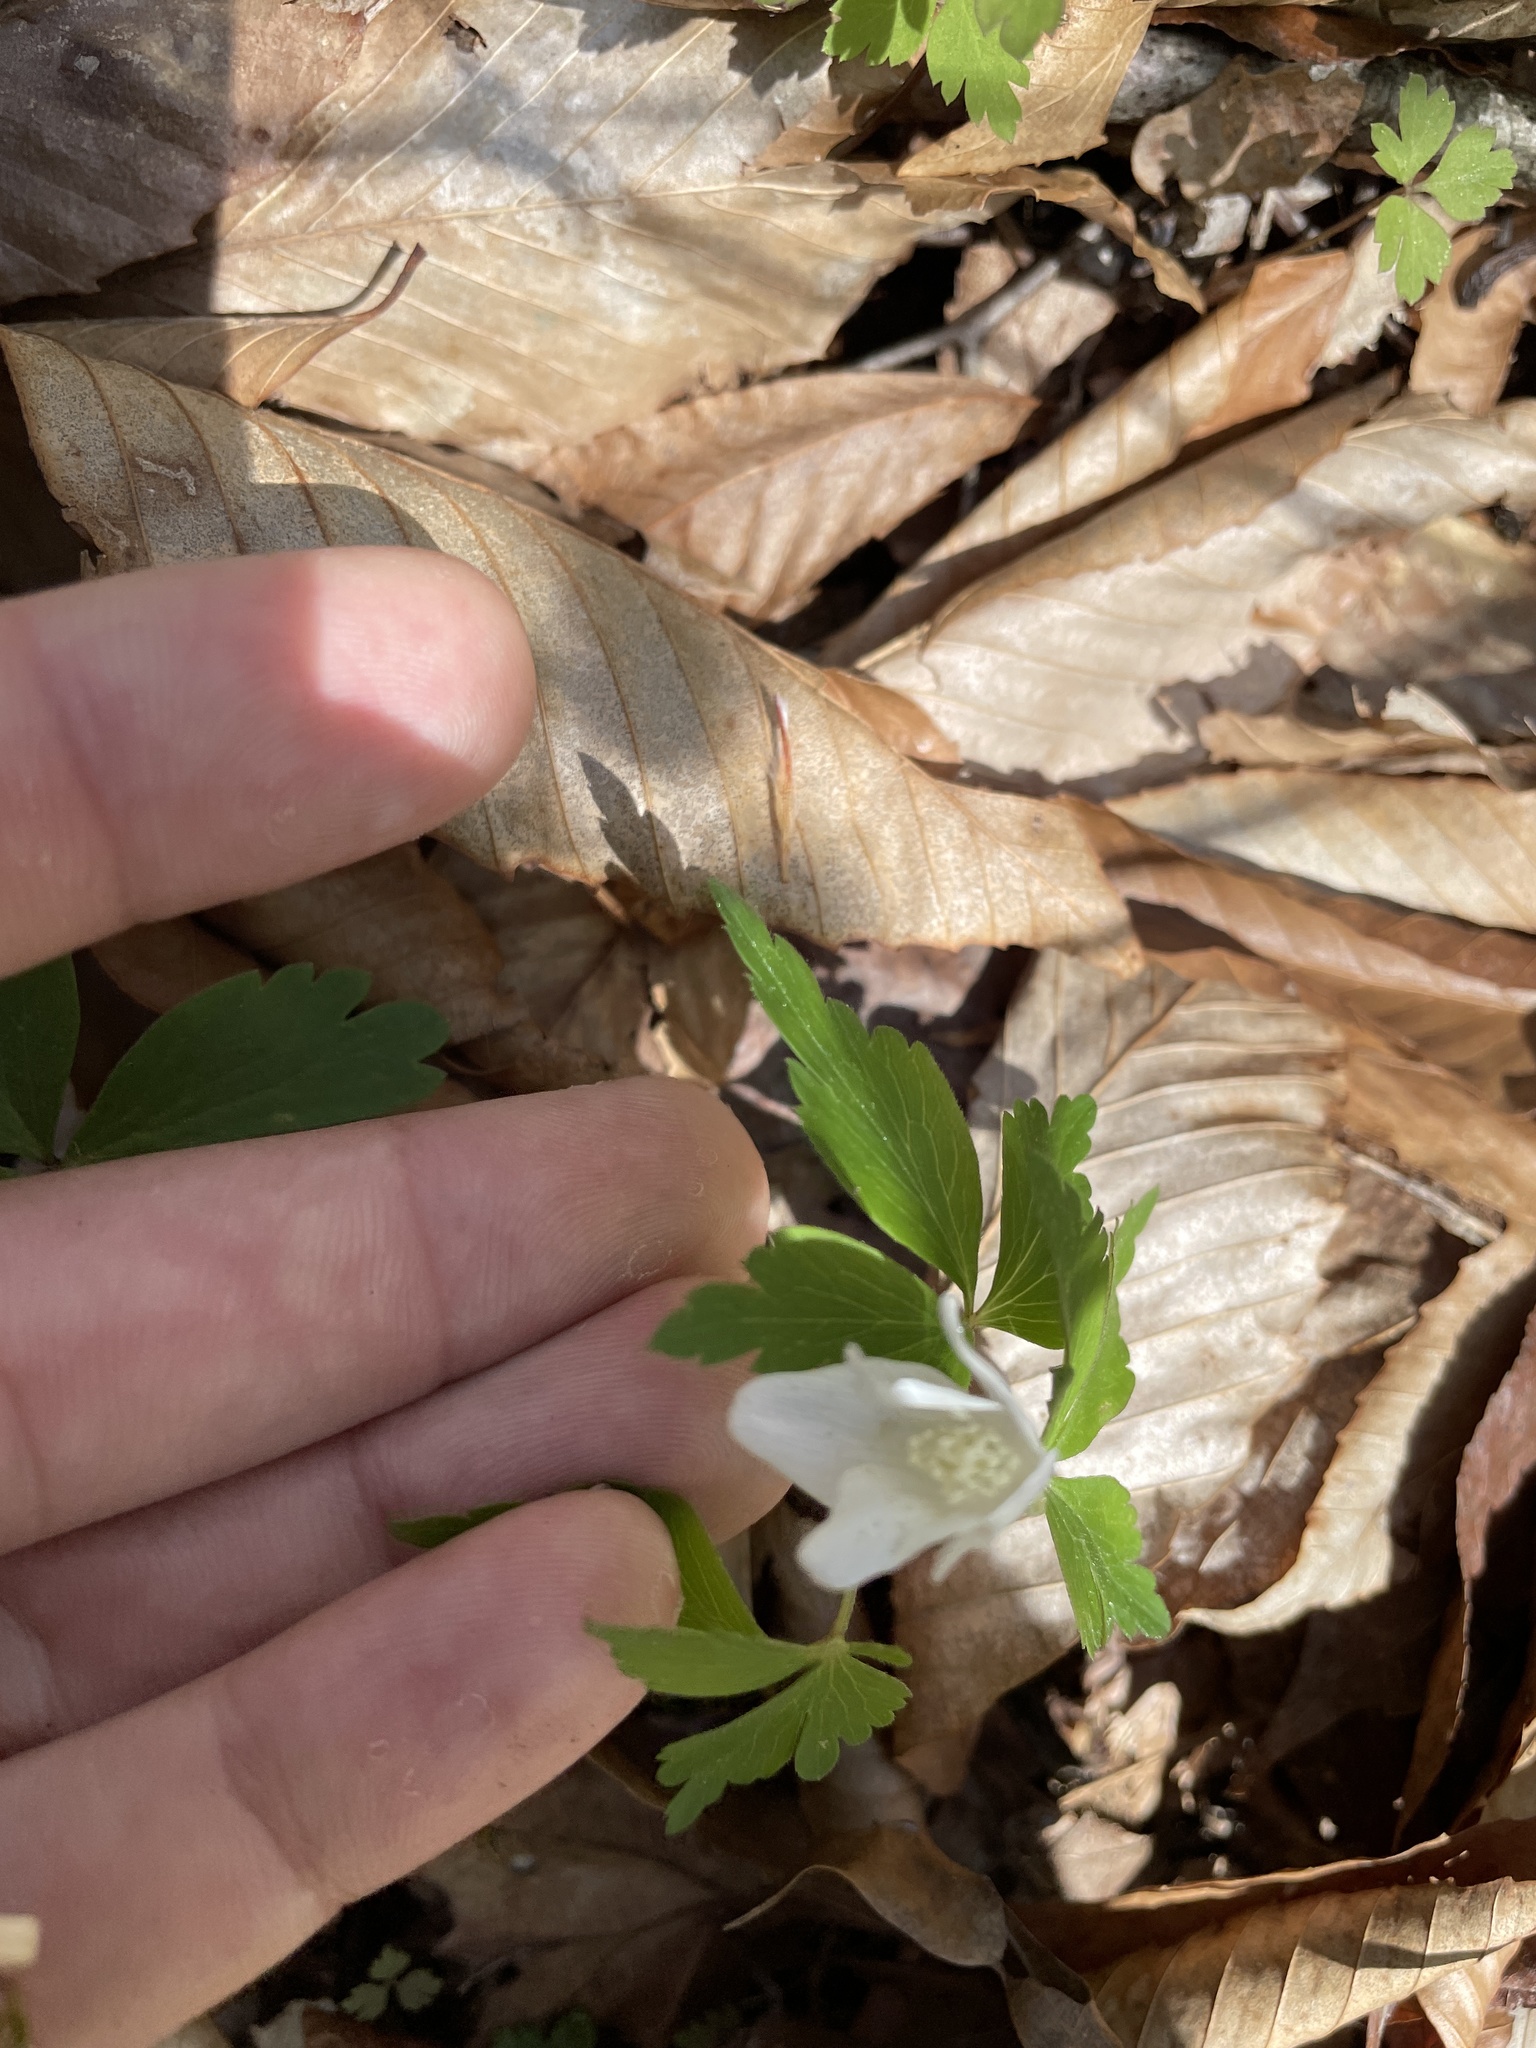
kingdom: Plantae
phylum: Tracheophyta
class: Magnoliopsida
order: Ranunculales
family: Ranunculaceae
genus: Anemone
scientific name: Anemone quinquefolia
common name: Wood anemone
